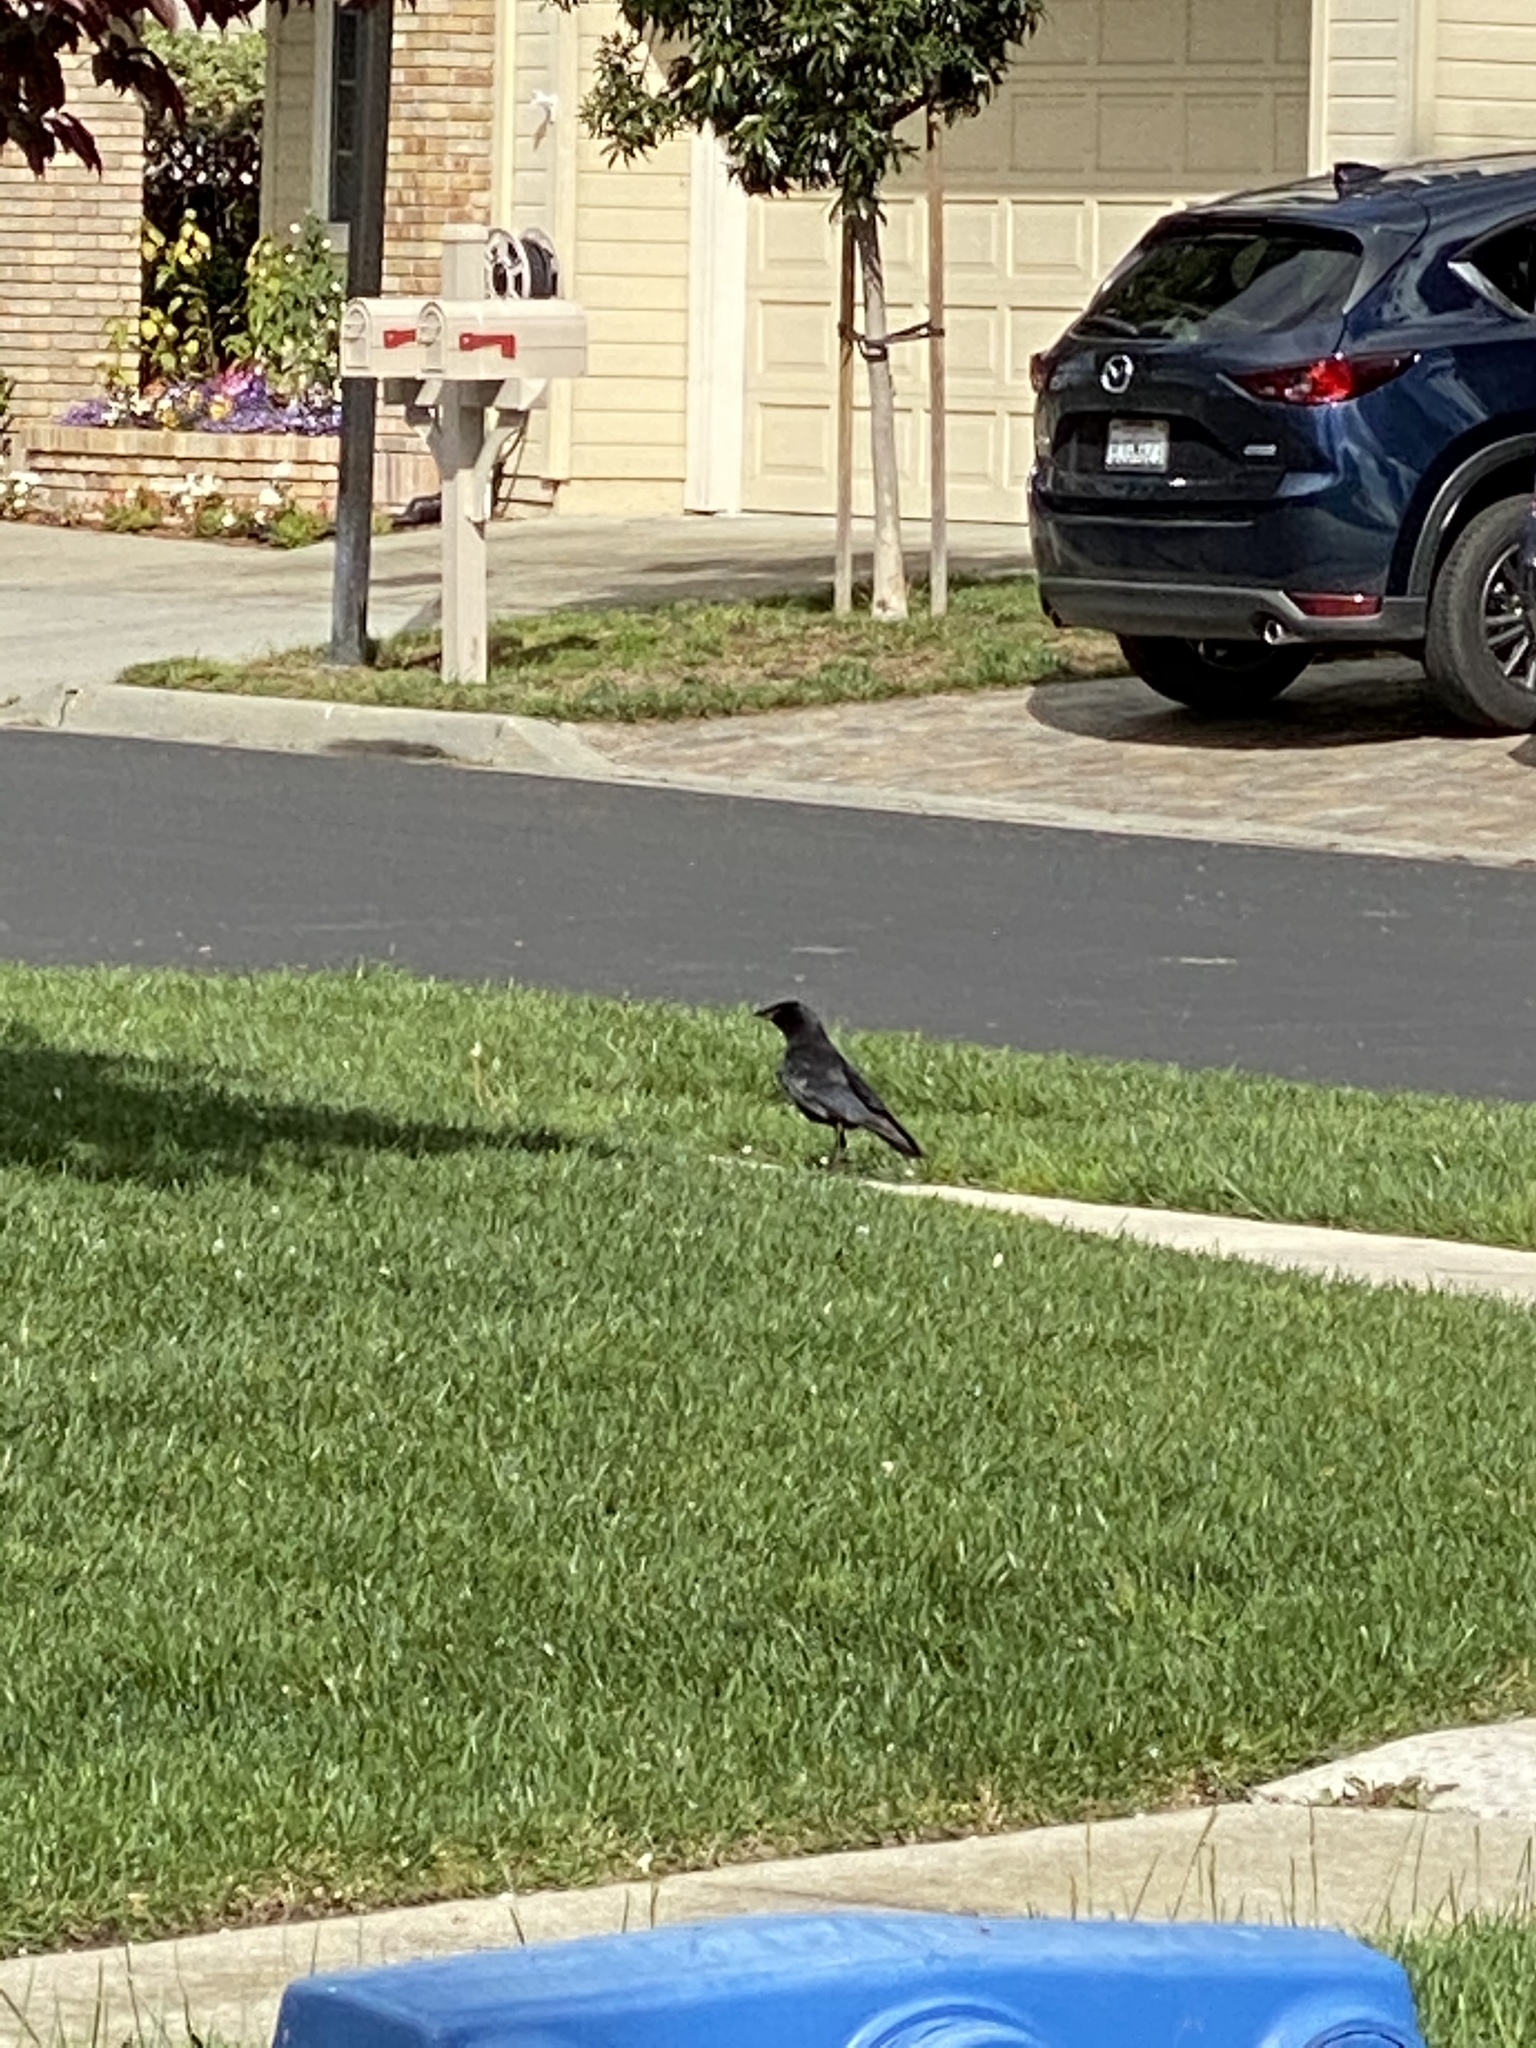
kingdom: Animalia
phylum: Chordata
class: Aves
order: Passeriformes
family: Corvidae
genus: Corvus
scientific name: Corvus brachyrhynchos
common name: American crow
